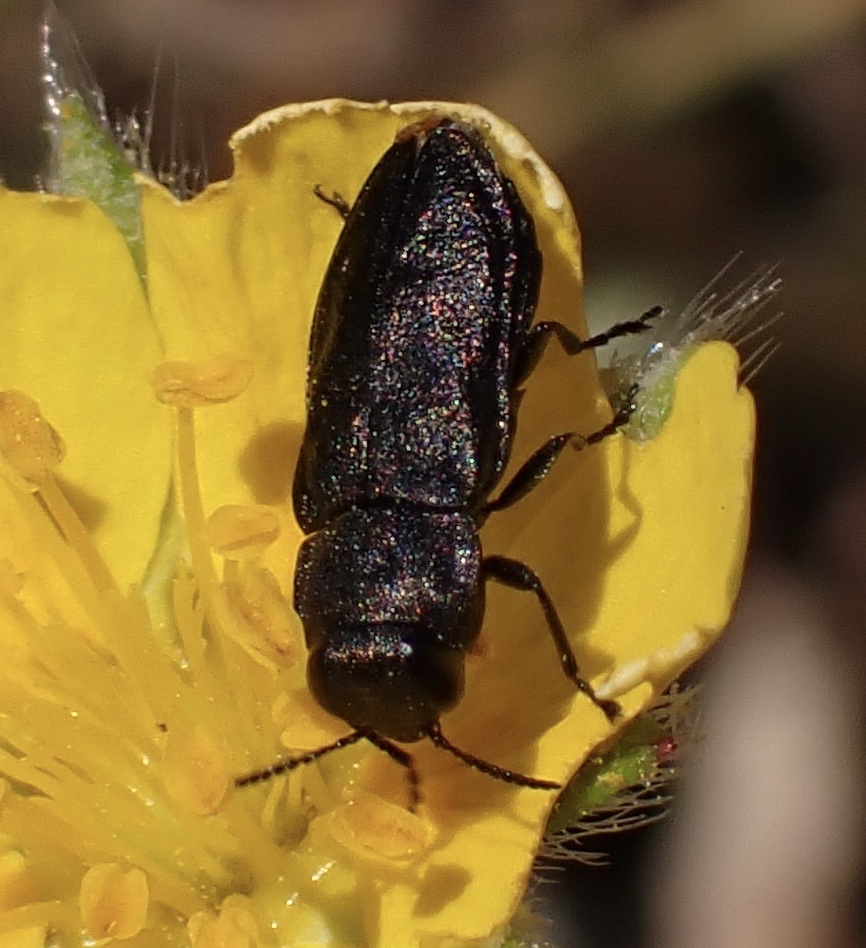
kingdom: Animalia
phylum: Arthropoda
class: Insecta
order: Coleoptera
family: Buprestidae
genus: Anthaxia
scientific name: Anthaxia quadripunctata
